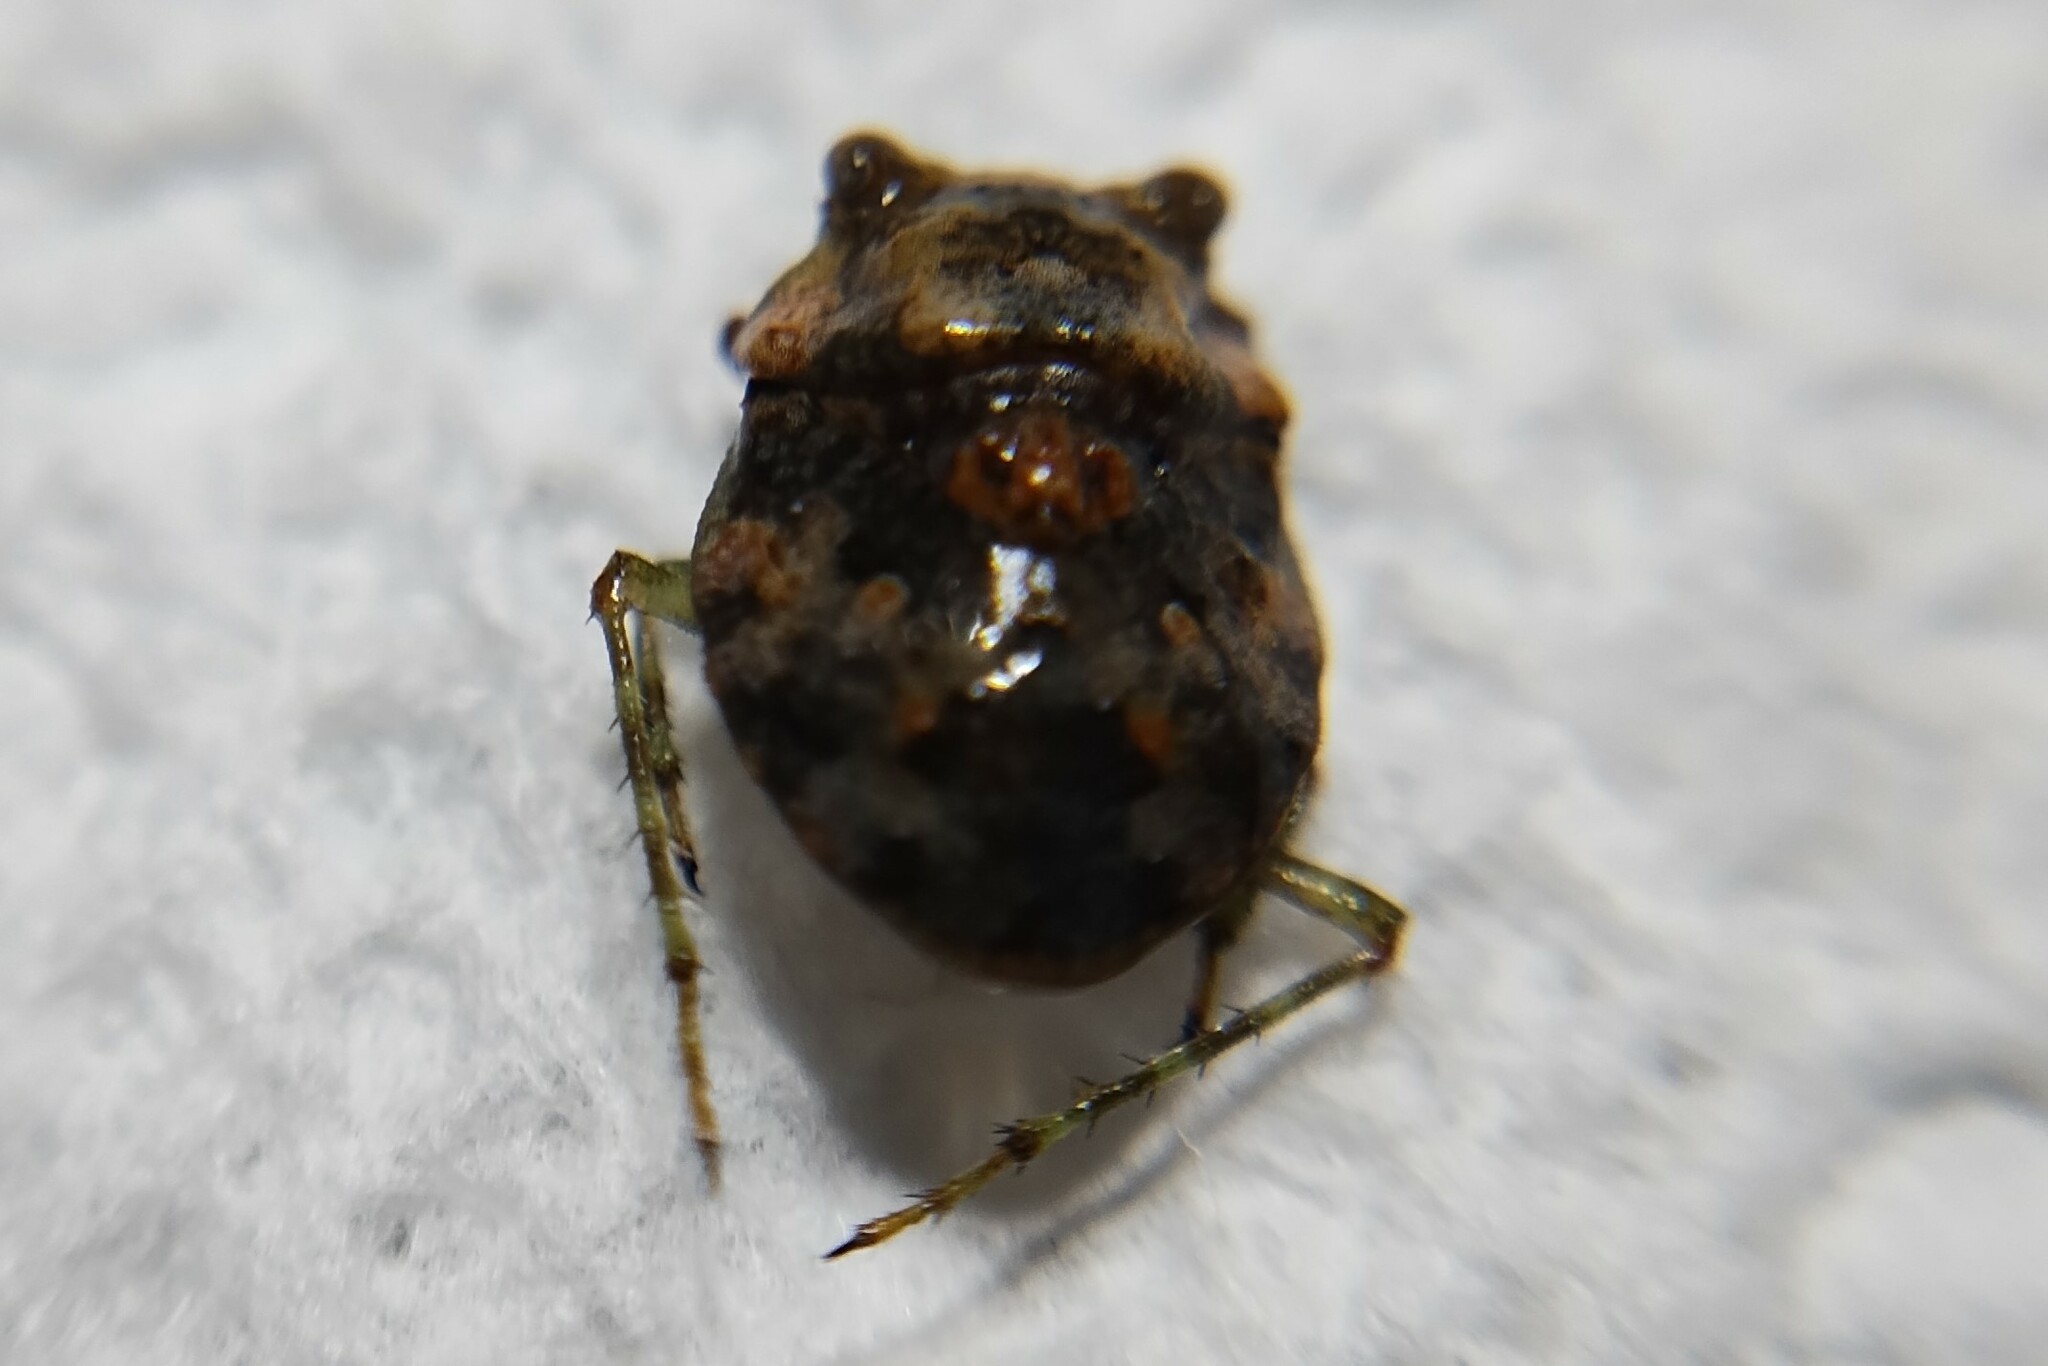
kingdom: Animalia
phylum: Arthropoda
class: Insecta
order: Hemiptera
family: Gelastocoridae
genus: Gelastocoris
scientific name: Gelastocoris rotundatus
